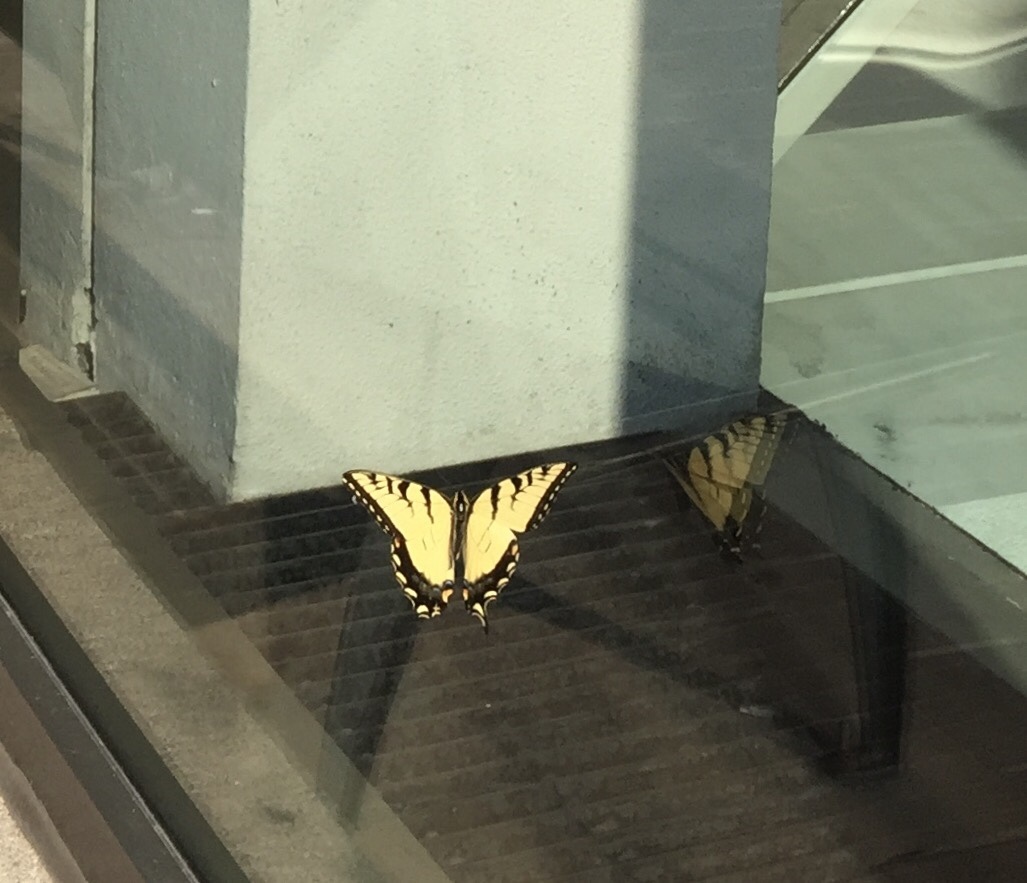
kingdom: Animalia
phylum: Arthropoda
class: Insecta
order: Lepidoptera
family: Papilionidae
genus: Papilio
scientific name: Papilio glaucus
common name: Tiger swallowtail
